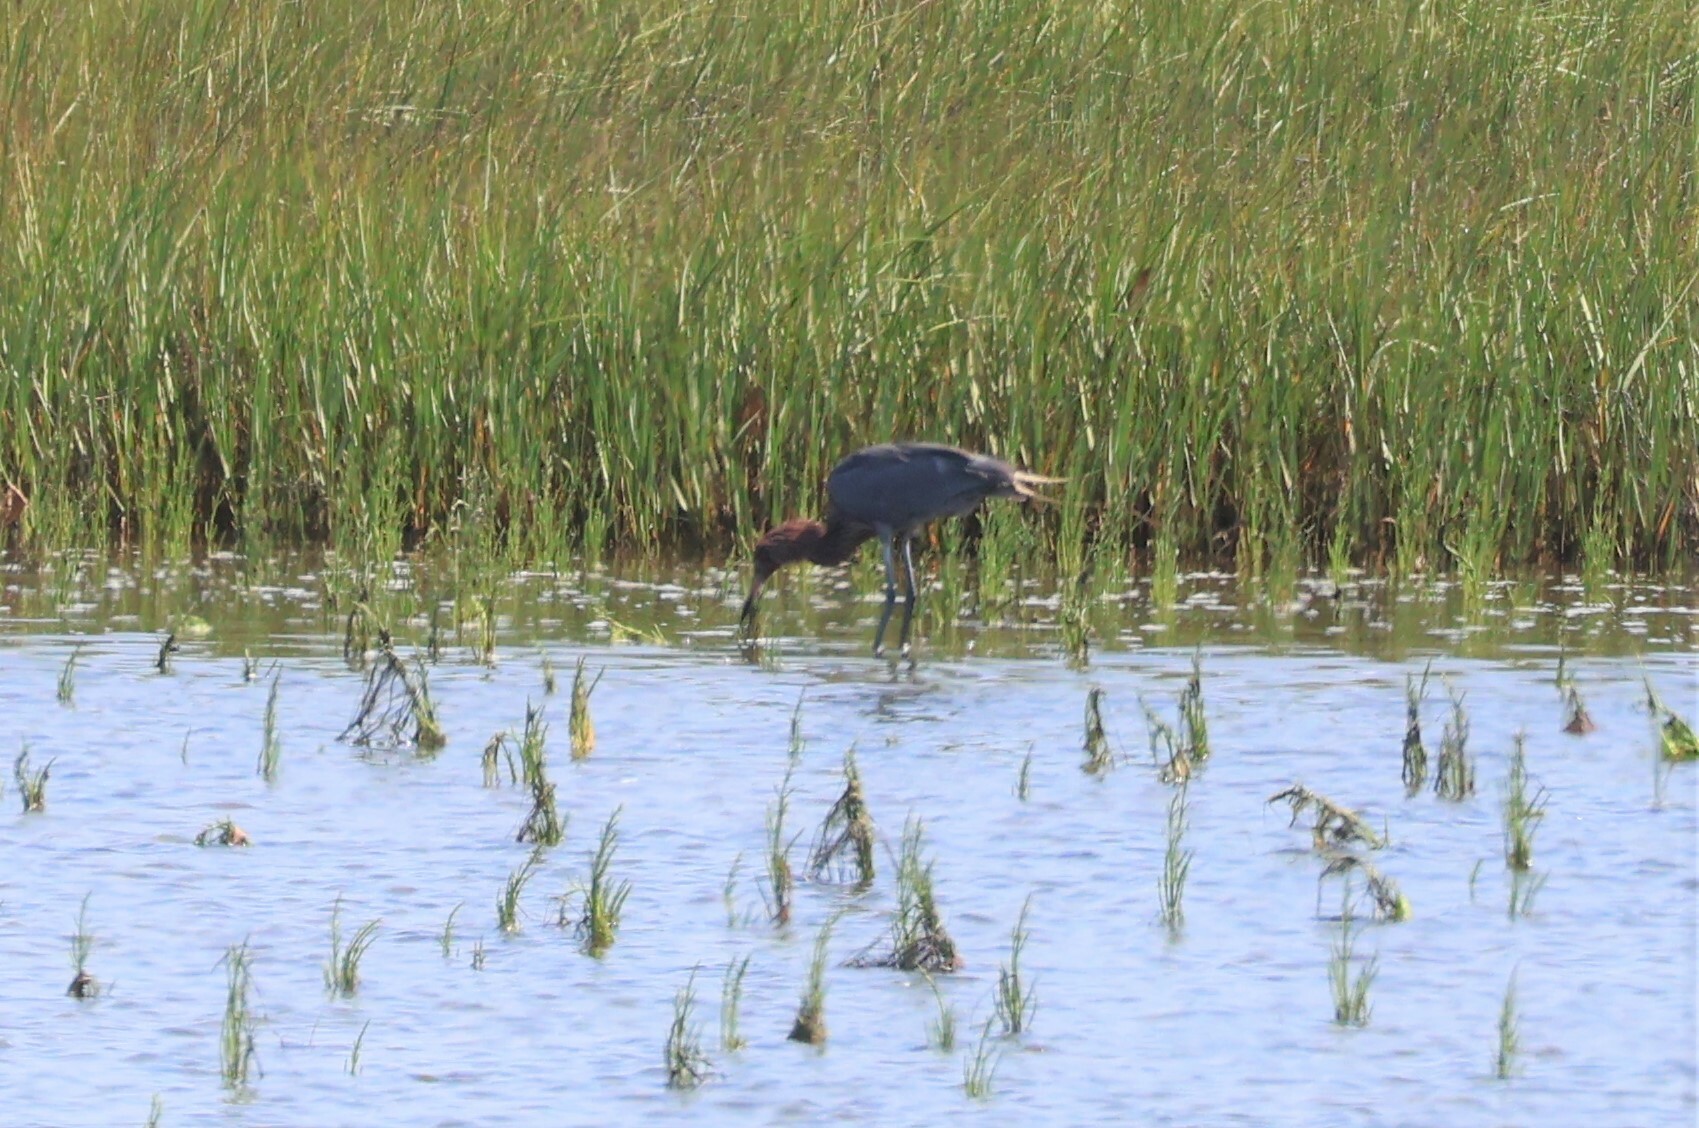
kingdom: Animalia
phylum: Chordata
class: Aves
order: Pelecaniformes
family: Ardeidae
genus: Egretta
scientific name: Egretta rufescens
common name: Reddish egret
